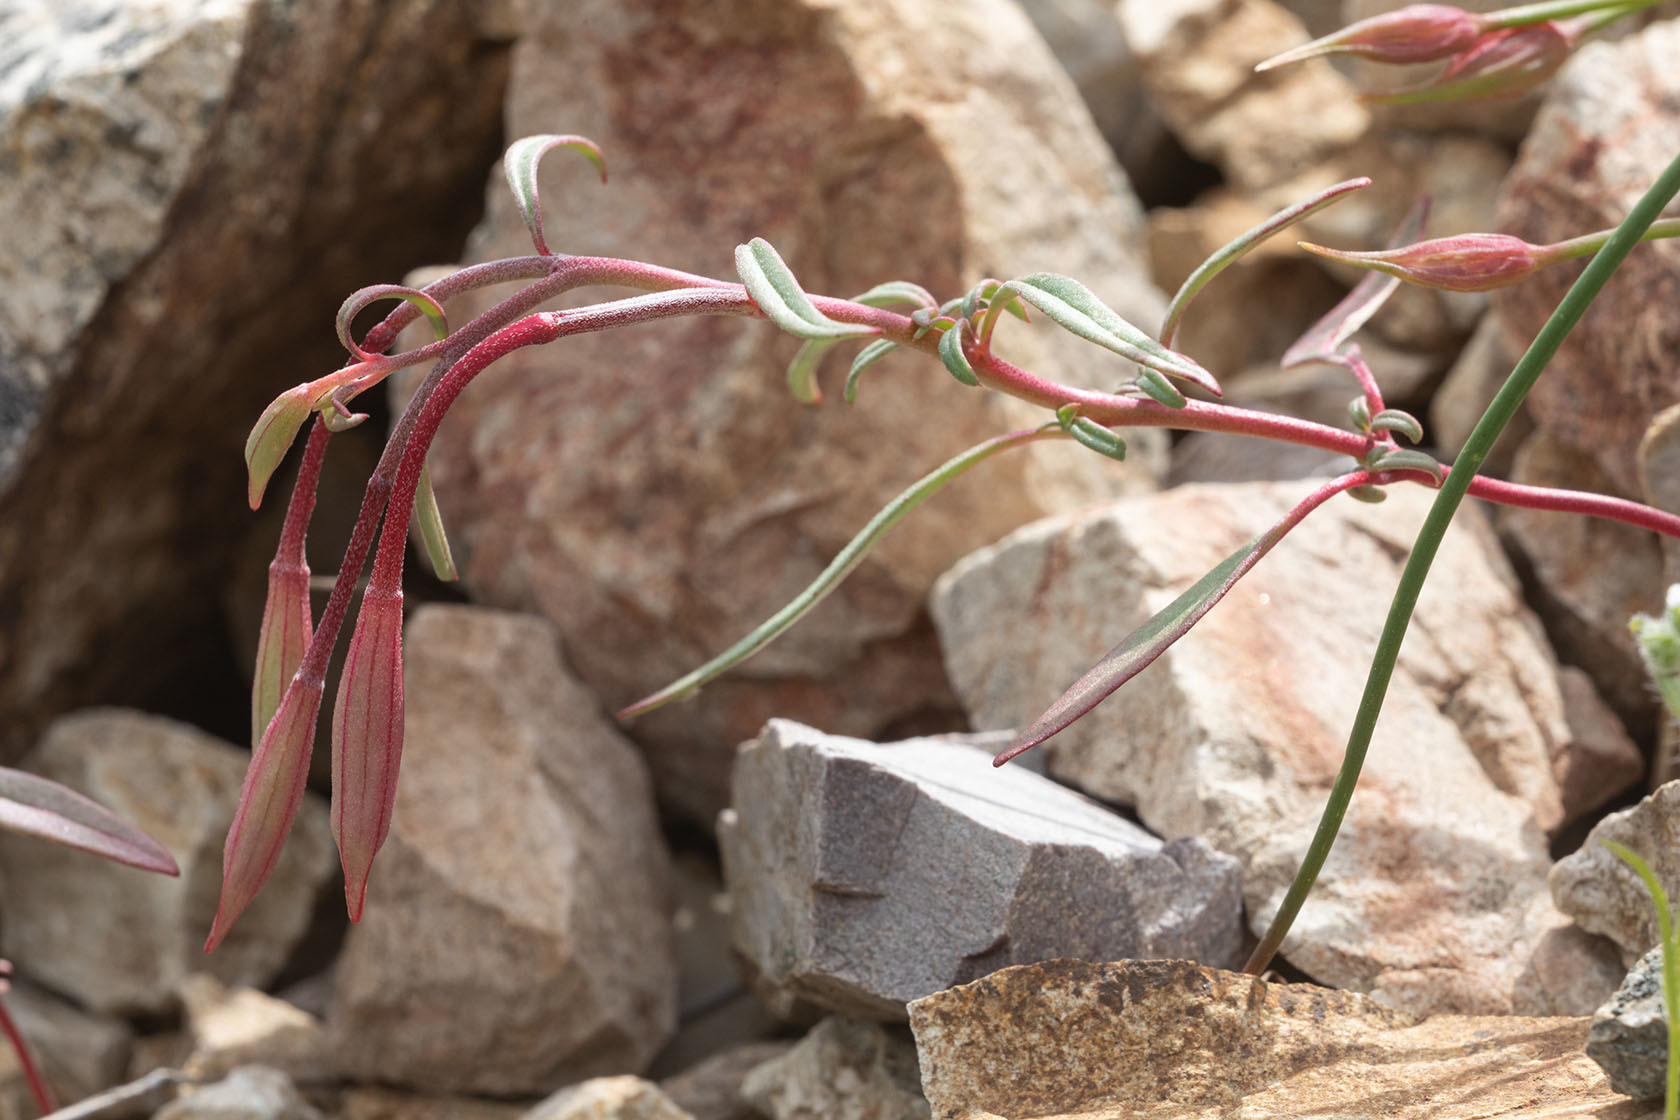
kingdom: Plantae
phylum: Tracheophyta
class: Magnoliopsida
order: Myrtales
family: Onagraceae
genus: Clarkia
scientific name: Clarkia breweri
